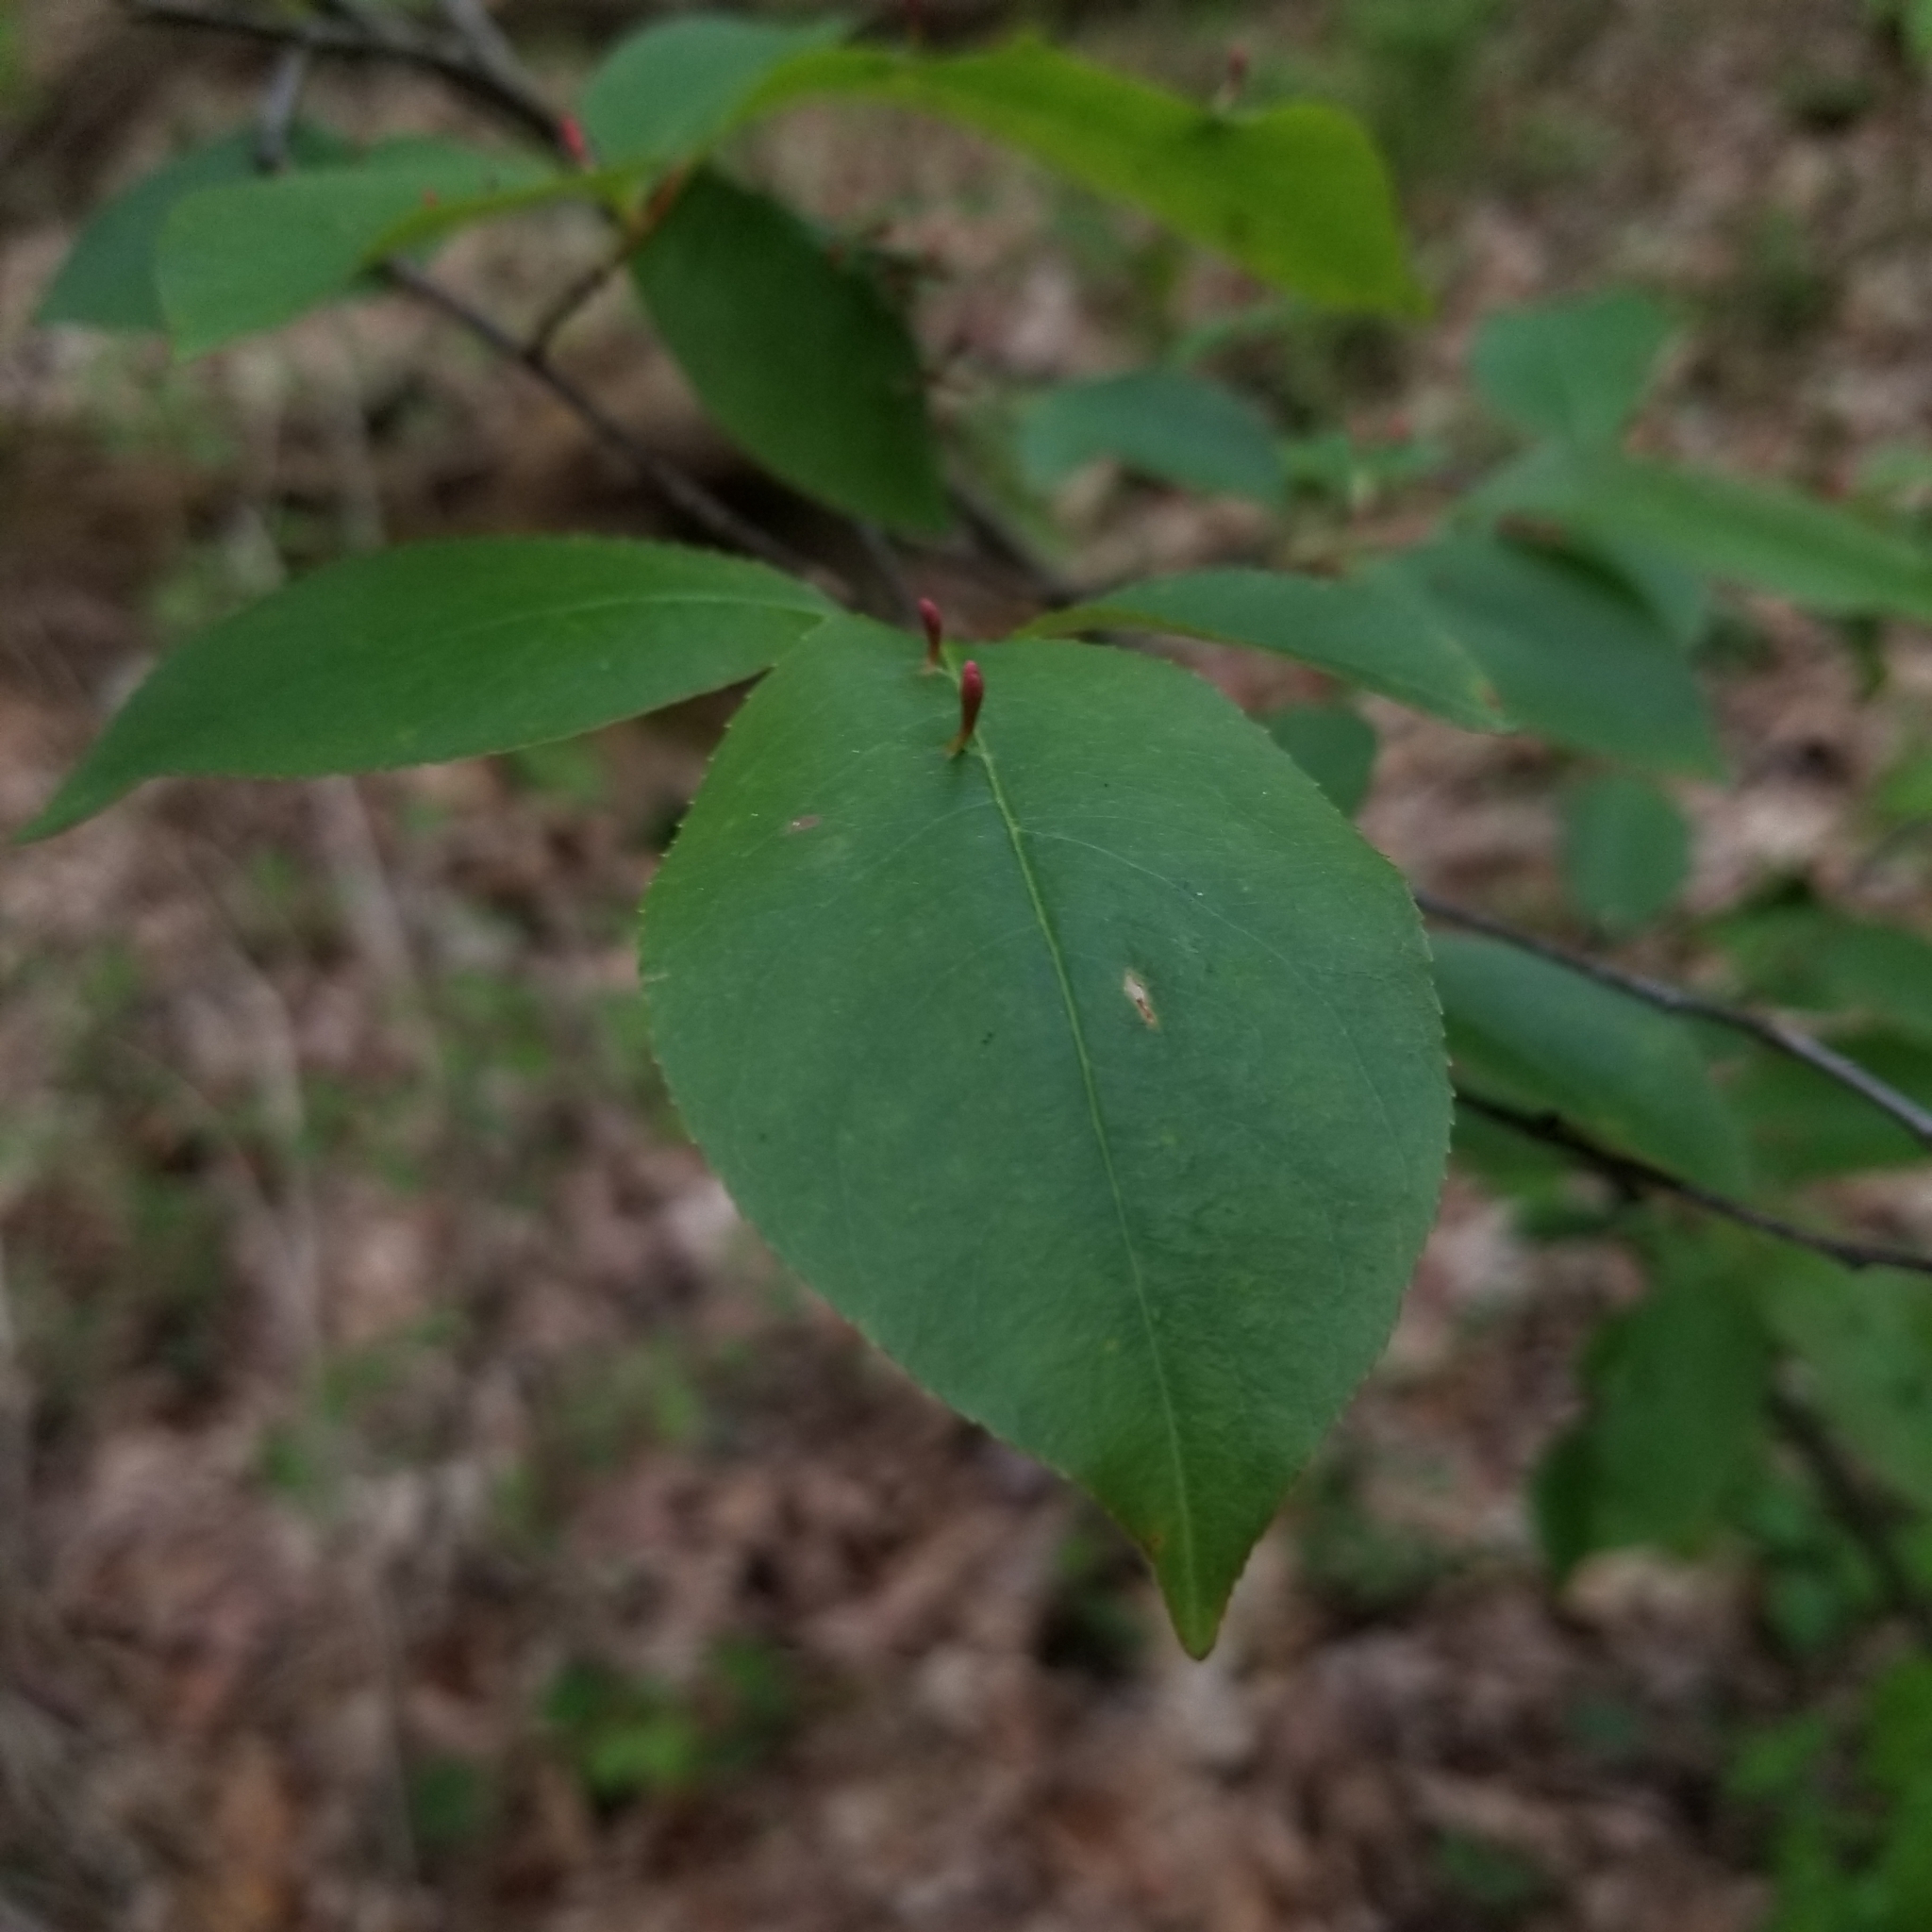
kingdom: Plantae
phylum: Tracheophyta
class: Magnoliopsida
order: Rosales
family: Rosaceae
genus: Prunus
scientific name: Prunus serotina
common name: Black cherry
